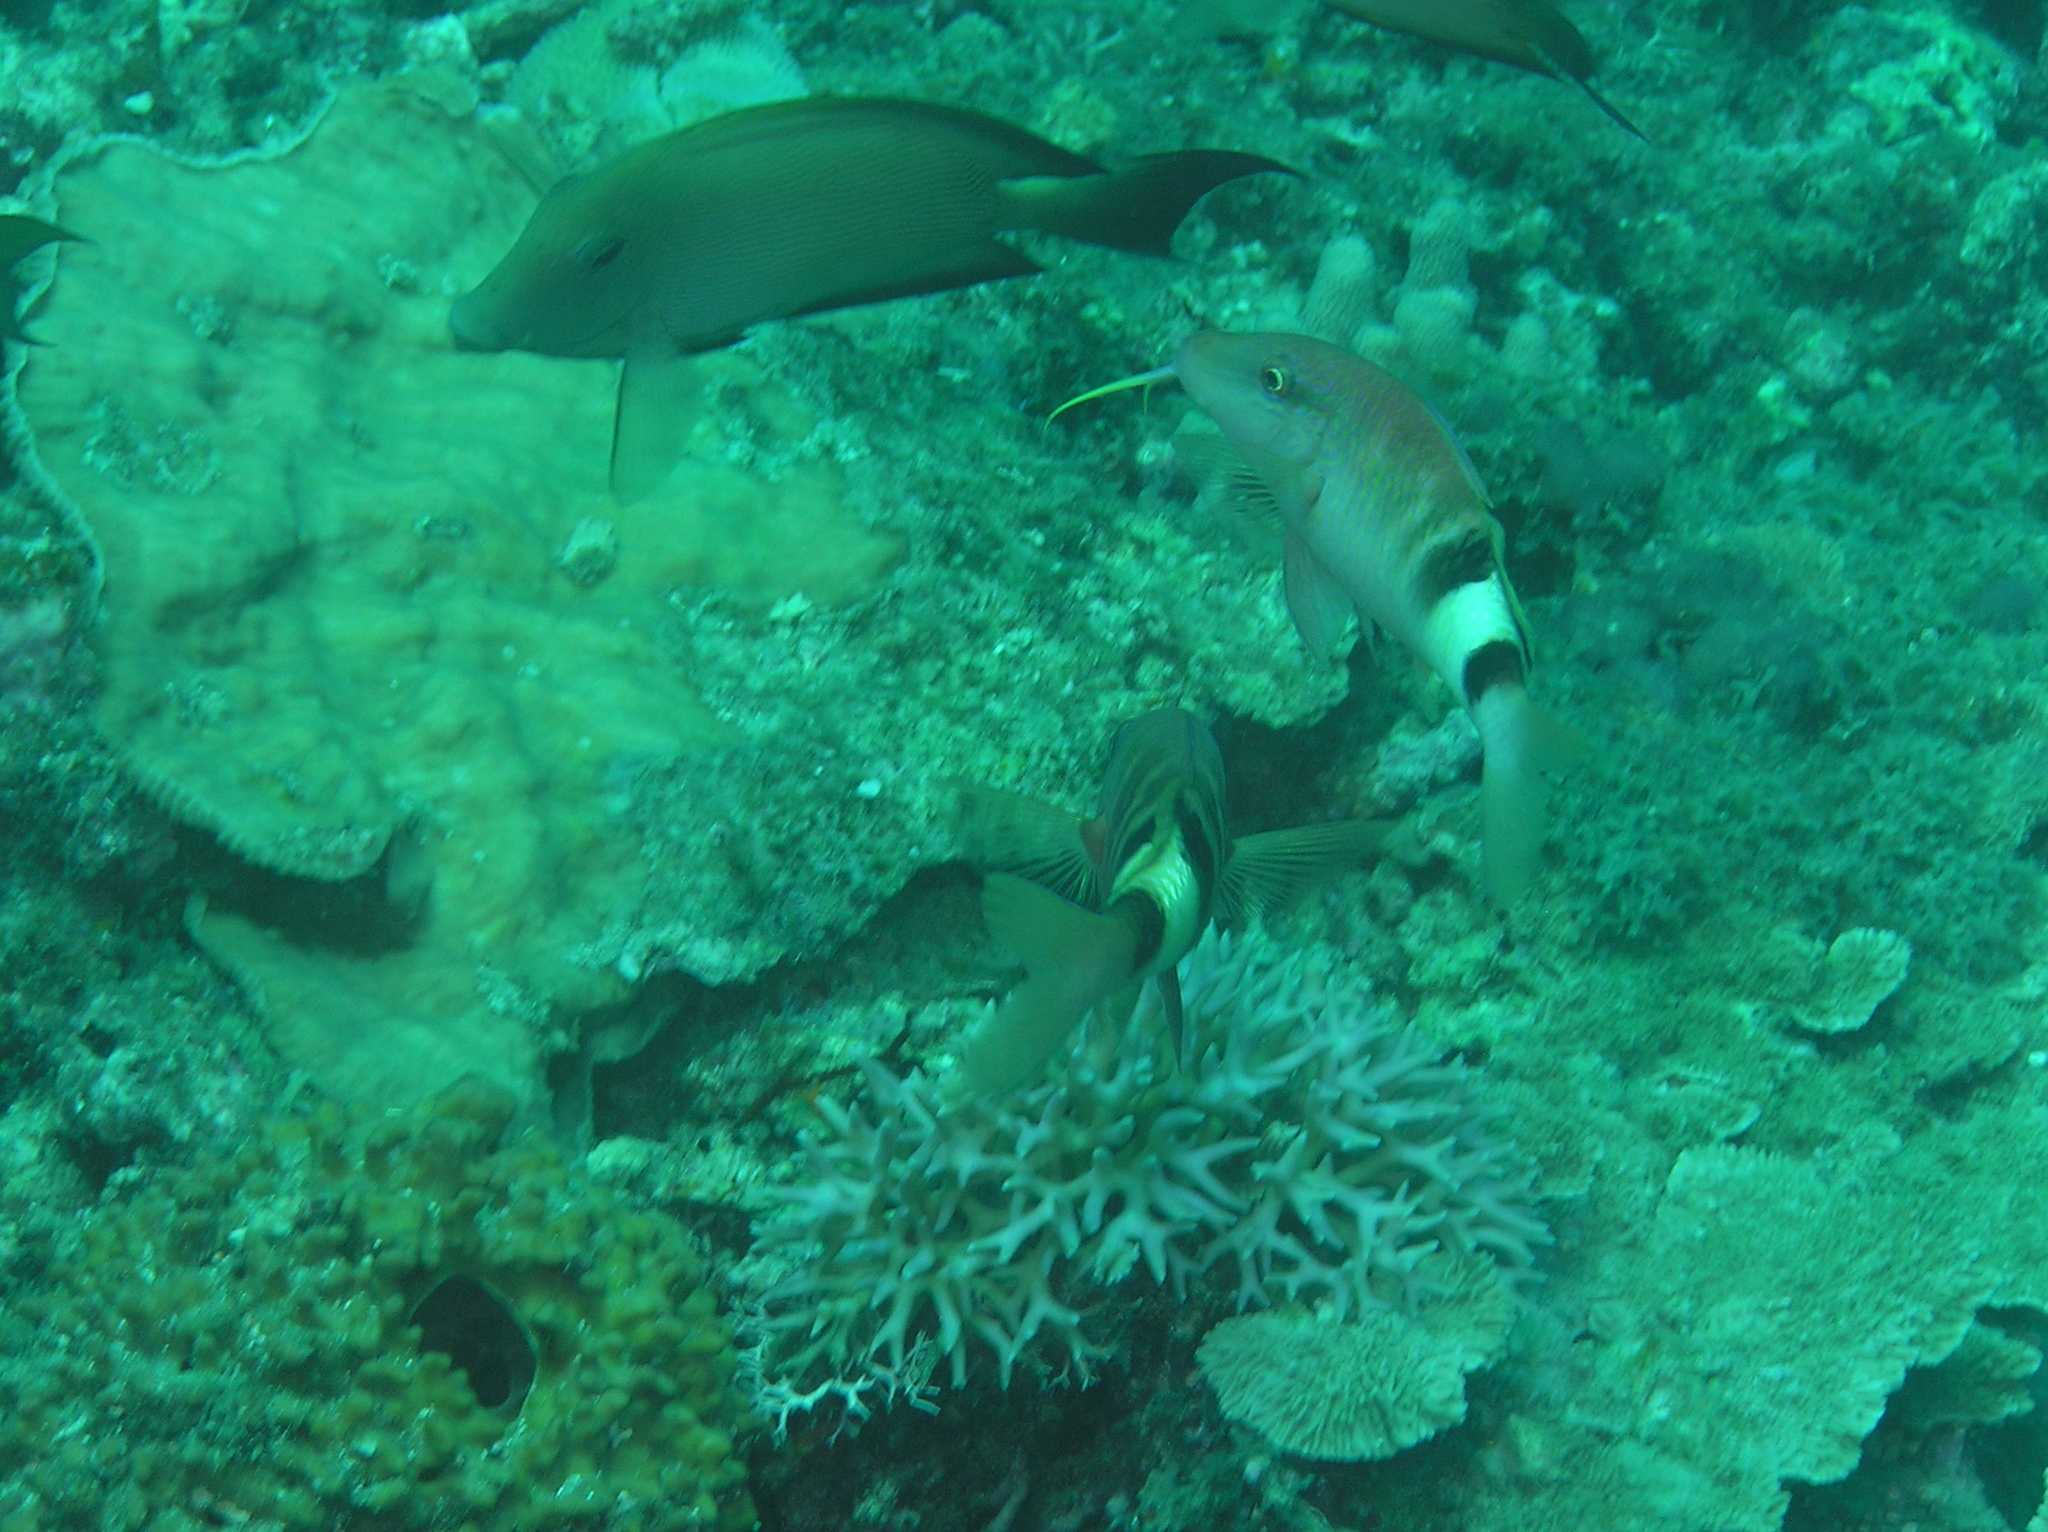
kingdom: Animalia
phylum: Chordata
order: Perciformes
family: Mullidae
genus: Parupeneus
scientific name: Parupeneus multifasciatus
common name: Manybar goatfish
